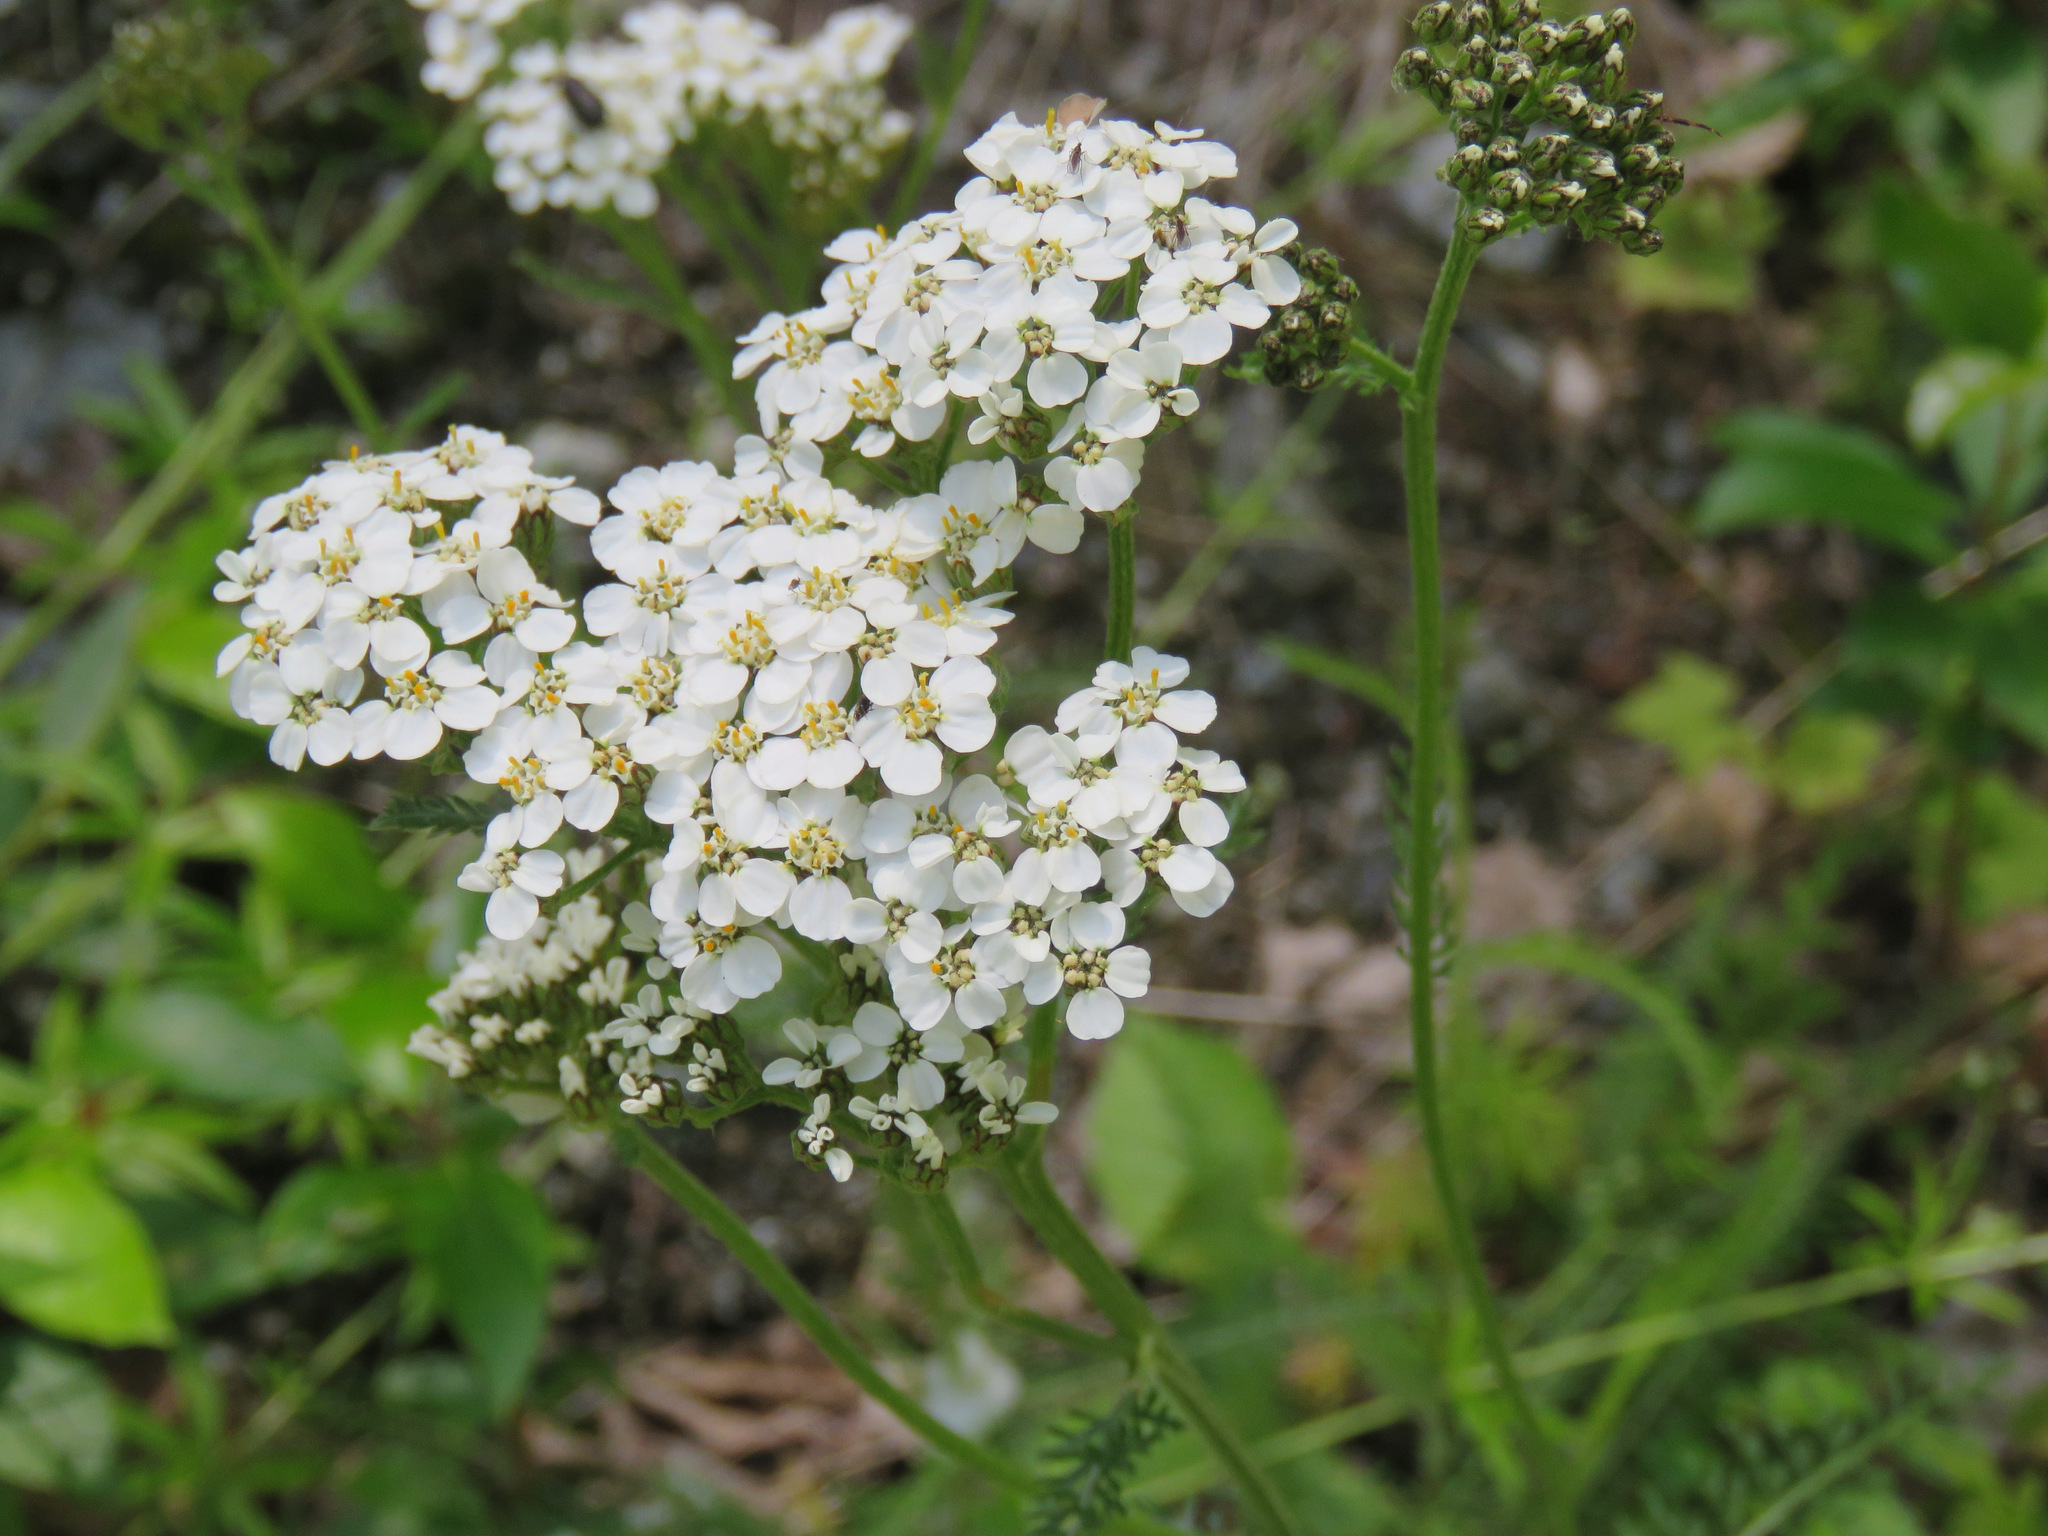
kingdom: Plantae
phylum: Tracheophyta
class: Magnoliopsida
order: Asterales
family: Asteraceae
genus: Achillea
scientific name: Achillea millefolium
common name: Yarrow
